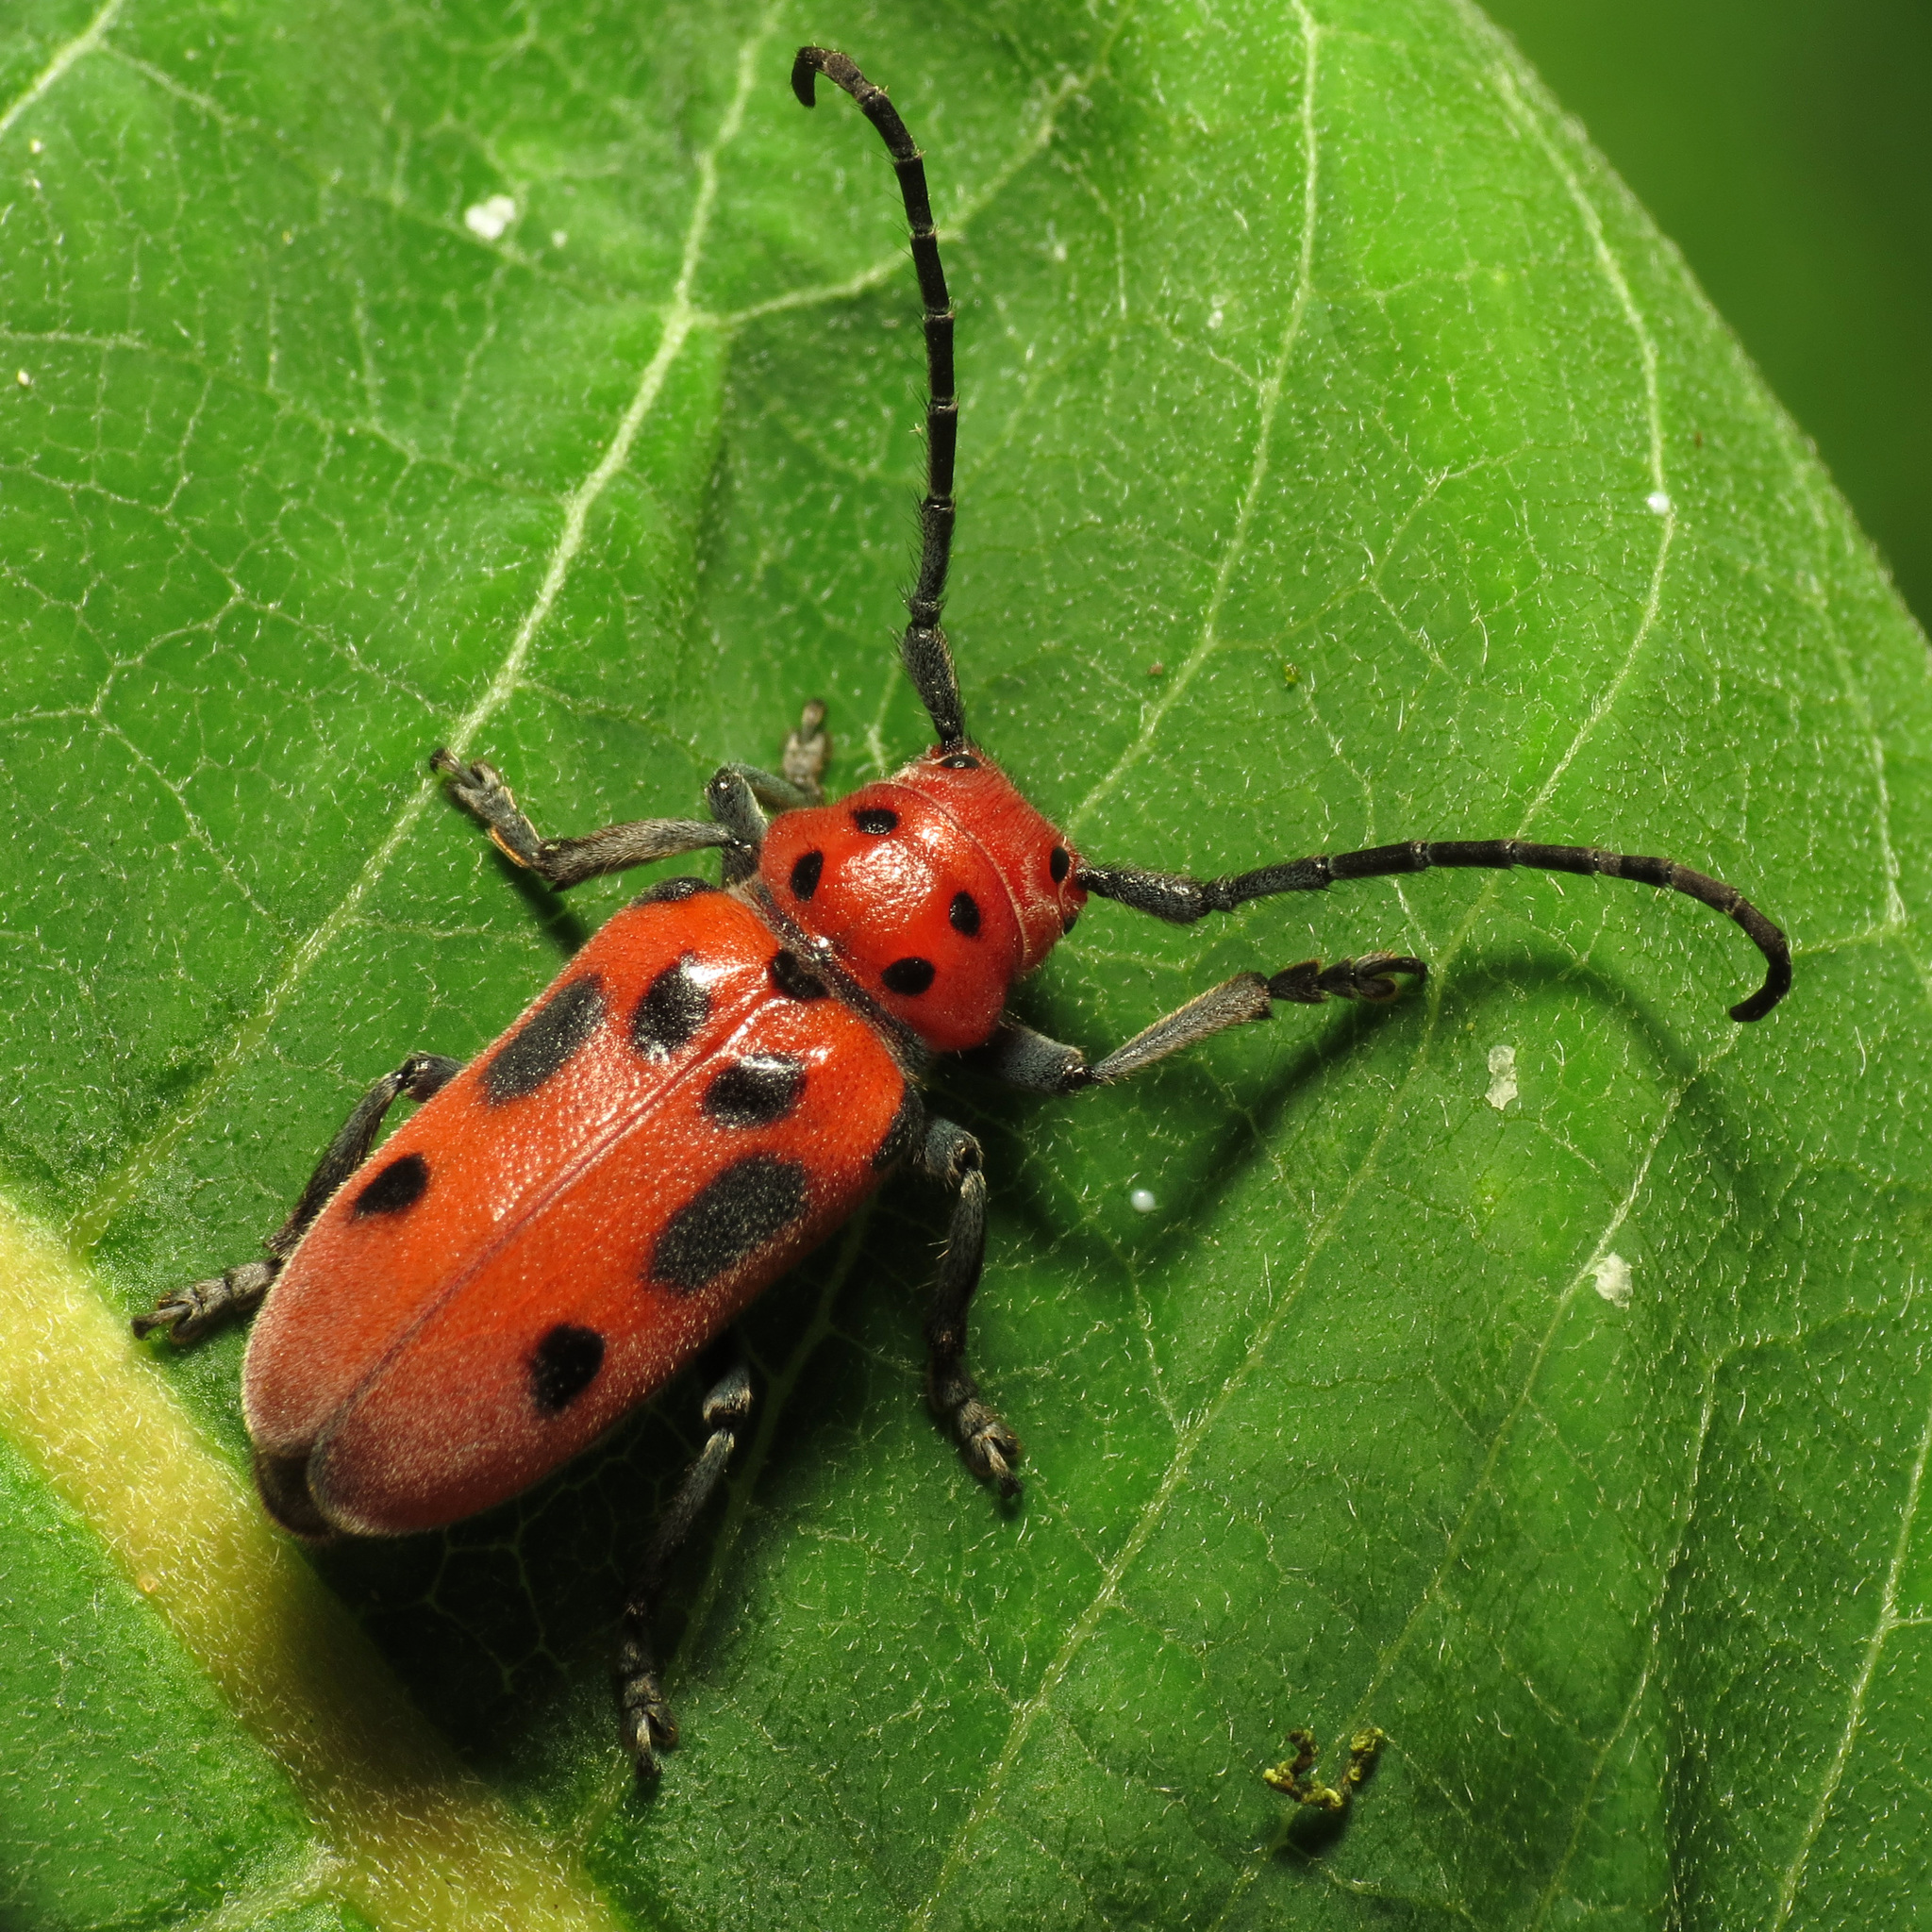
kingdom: Animalia
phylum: Arthropoda
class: Insecta
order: Coleoptera
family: Cerambycidae
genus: Tetraopes
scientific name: Tetraopes tetrophthalmus
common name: Red milkweed beetle
